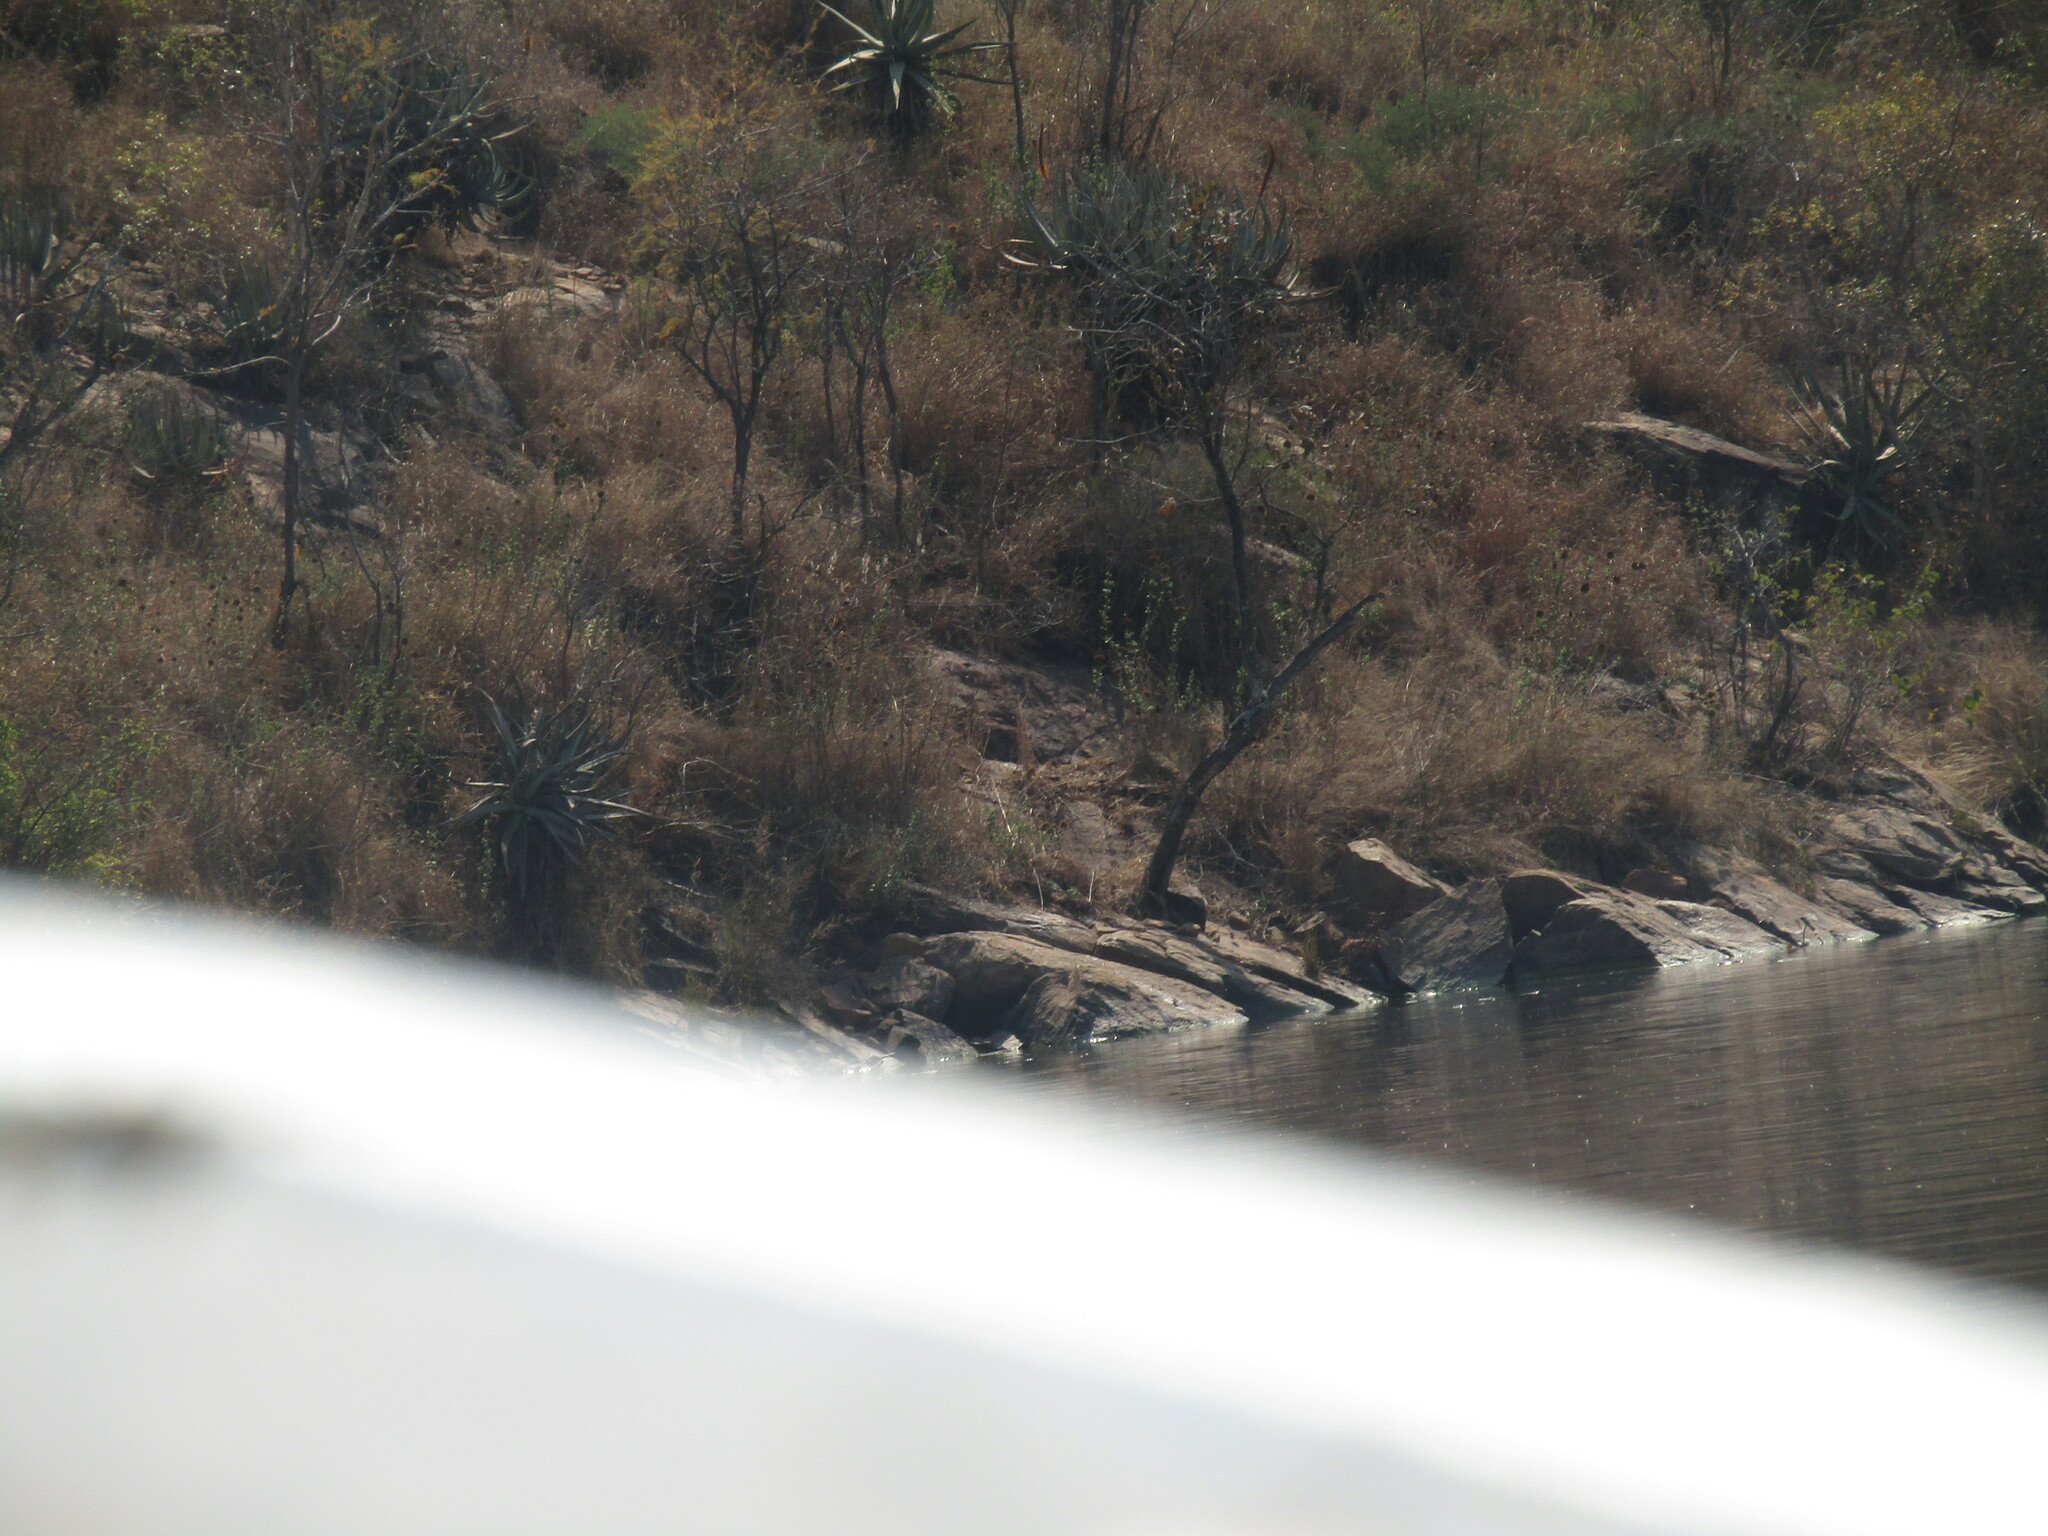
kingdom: Plantae
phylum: Tracheophyta
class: Liliopsida
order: Asparagales
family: Asphodelaceae
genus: Aloe
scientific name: Aloe mutabilis
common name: Blue krantz aloe
